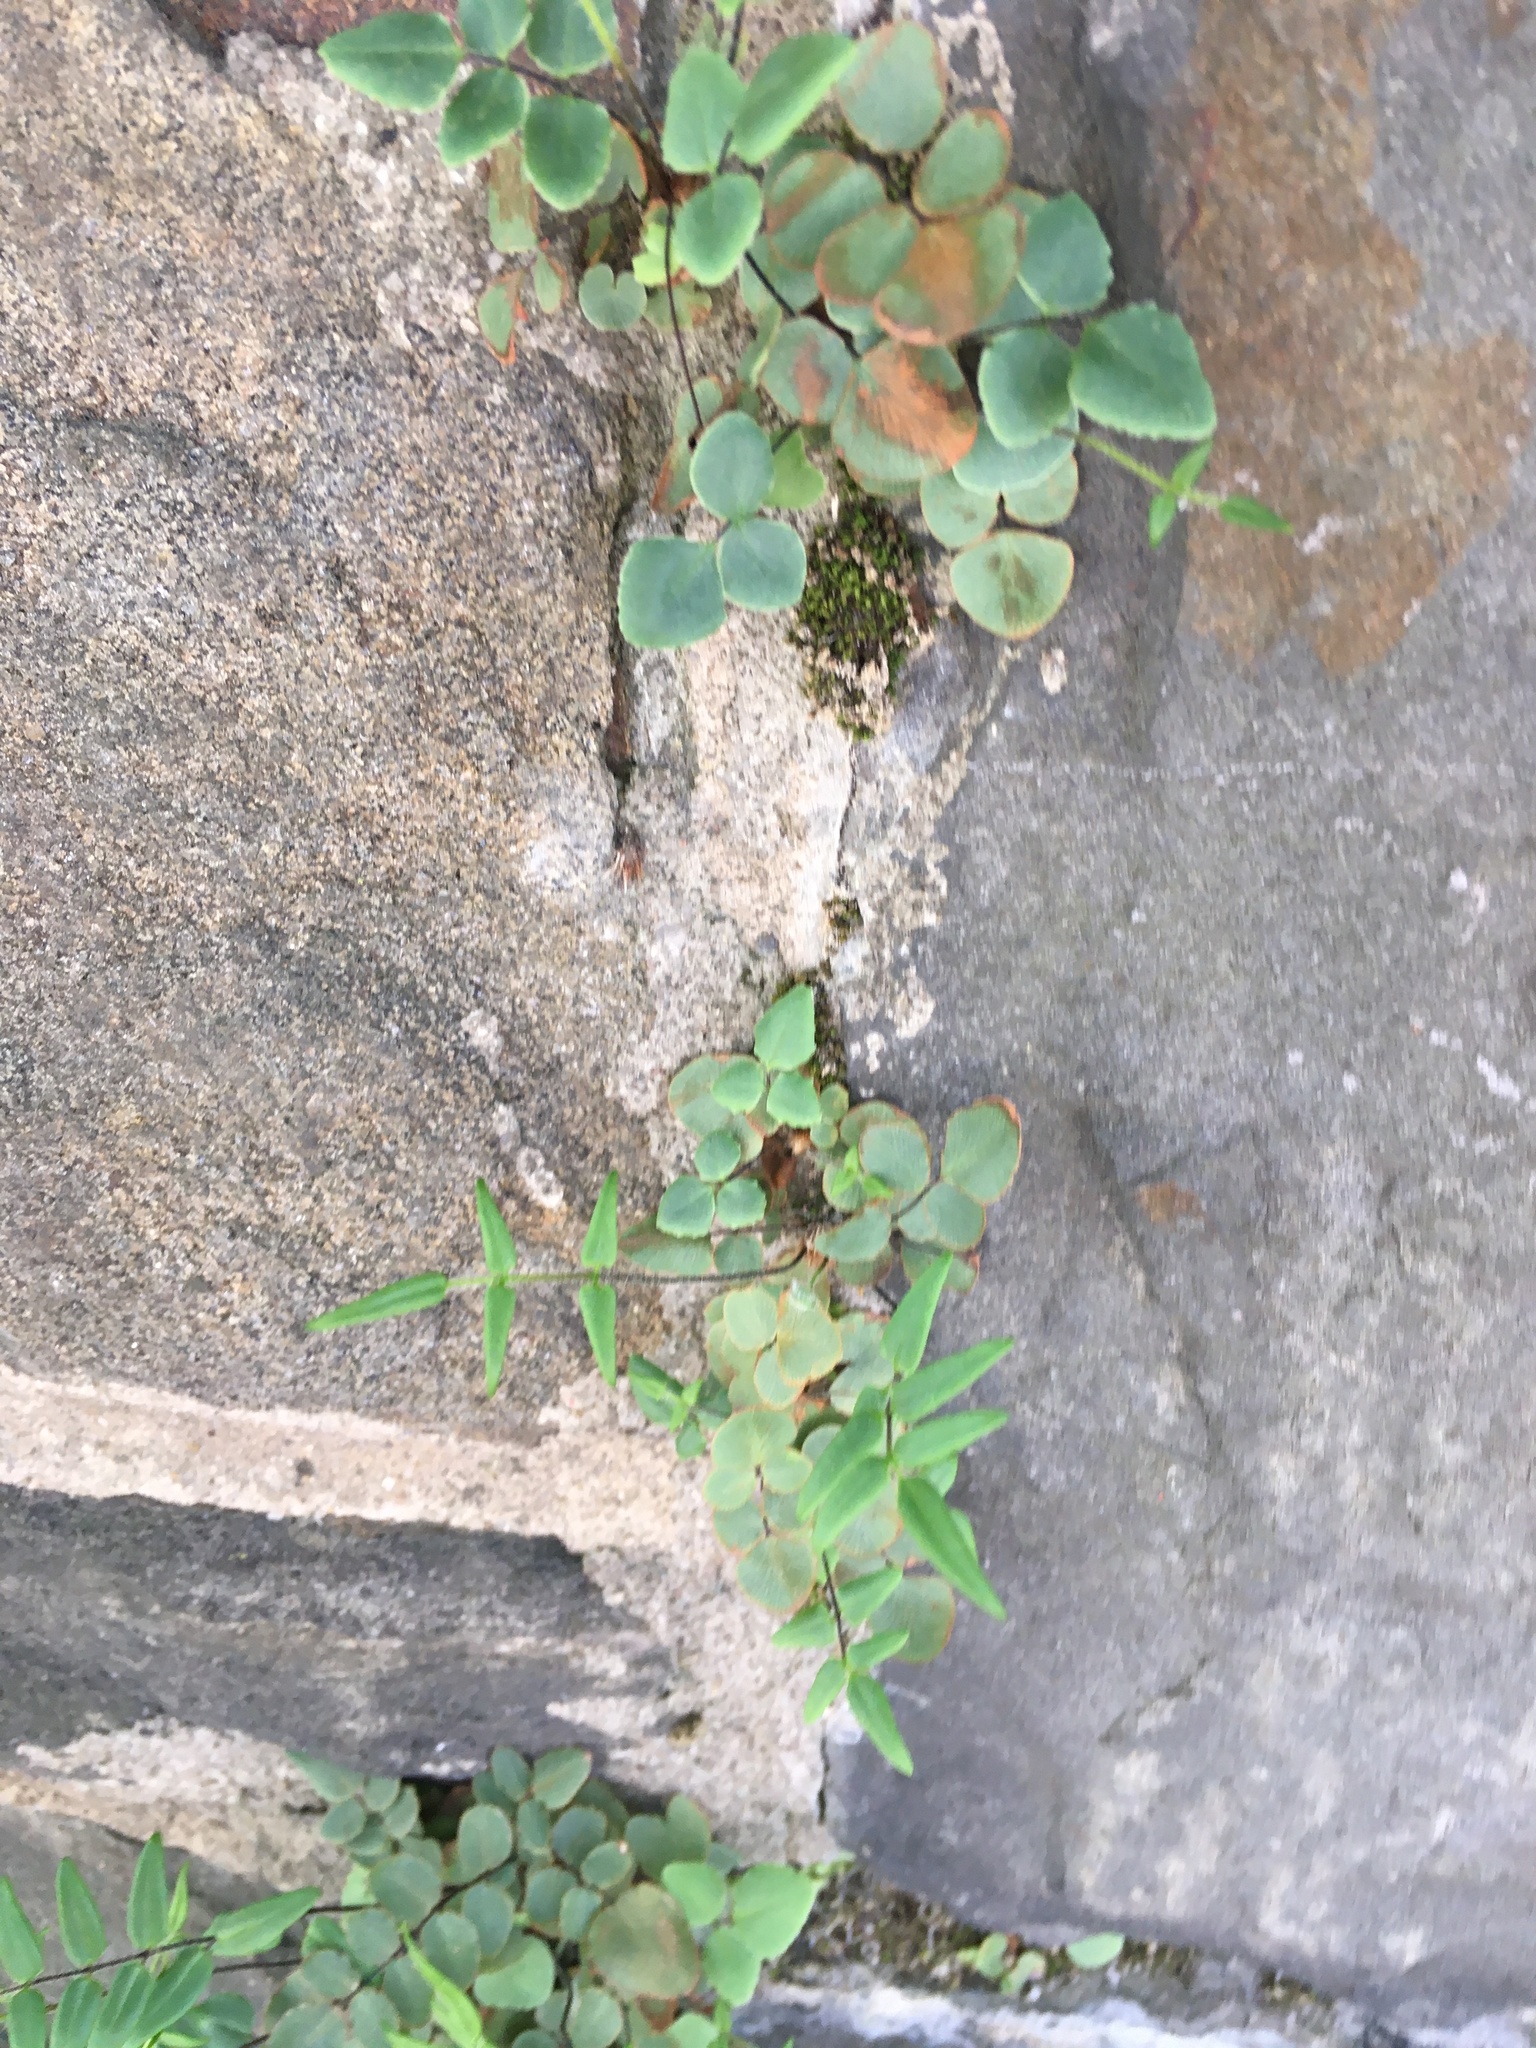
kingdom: Plantae
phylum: Tracheophyta
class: Polypodiopsida
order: Polypodiales
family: Pteridaceae
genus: Pellaea
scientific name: Pellaea atropurpurea
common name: Hairy cliffbrake
